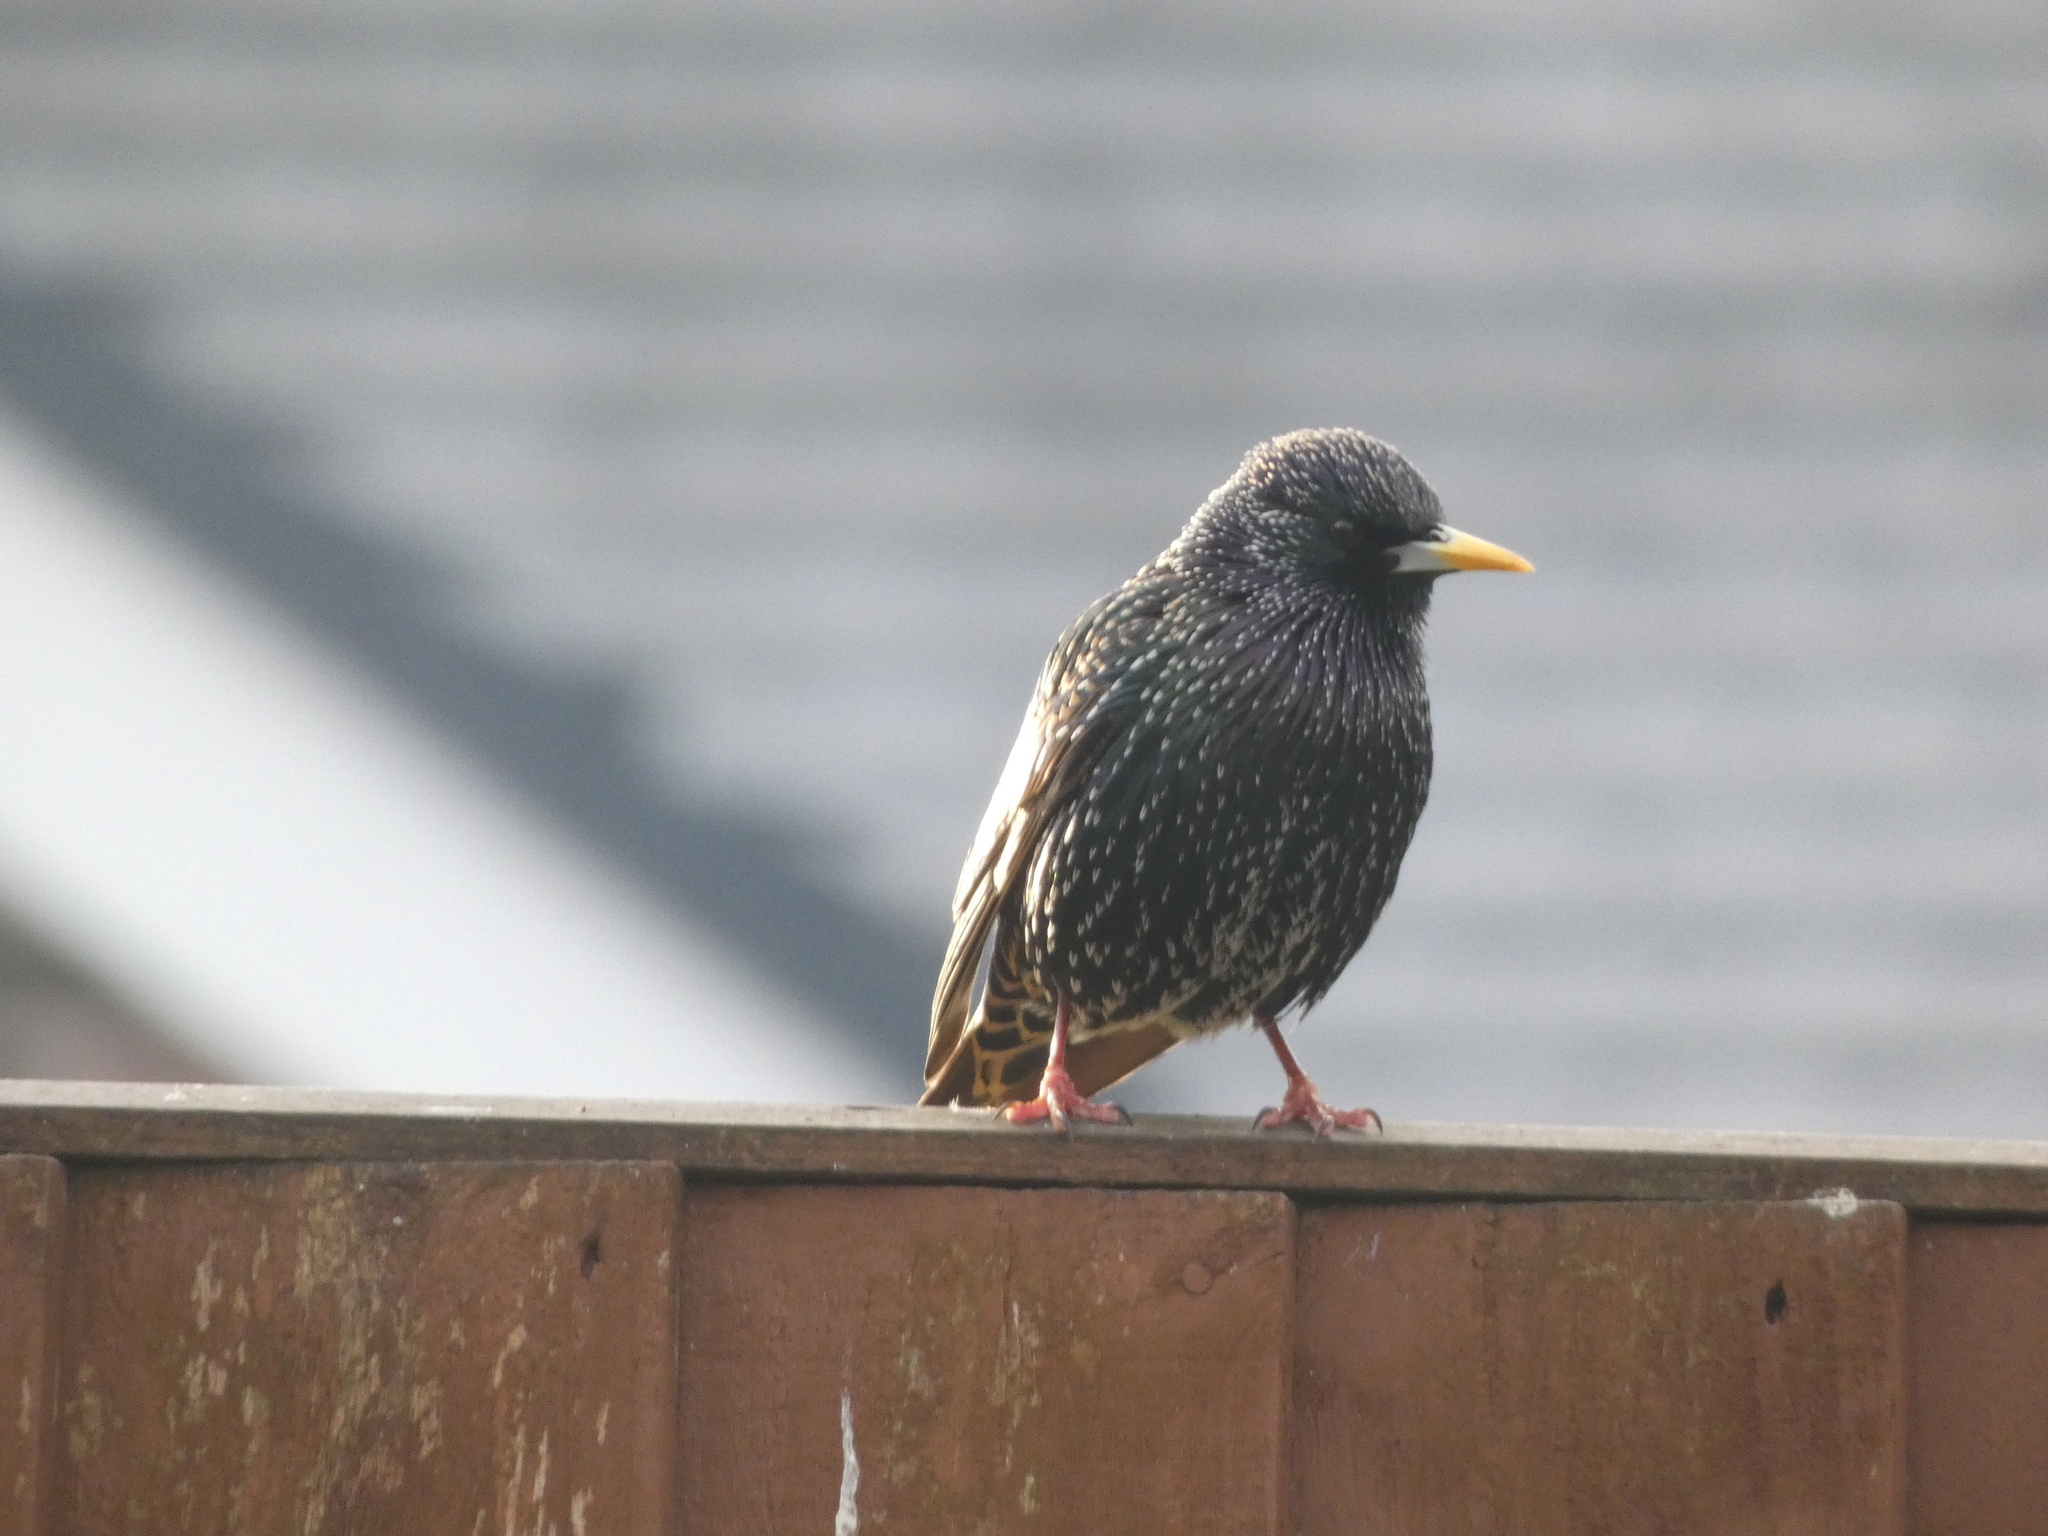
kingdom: Animalia
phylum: Chordata
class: Aves
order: Passeriformes
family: Sturnidae
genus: Sturnus
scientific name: Sturnus vulgaris
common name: Common starling
